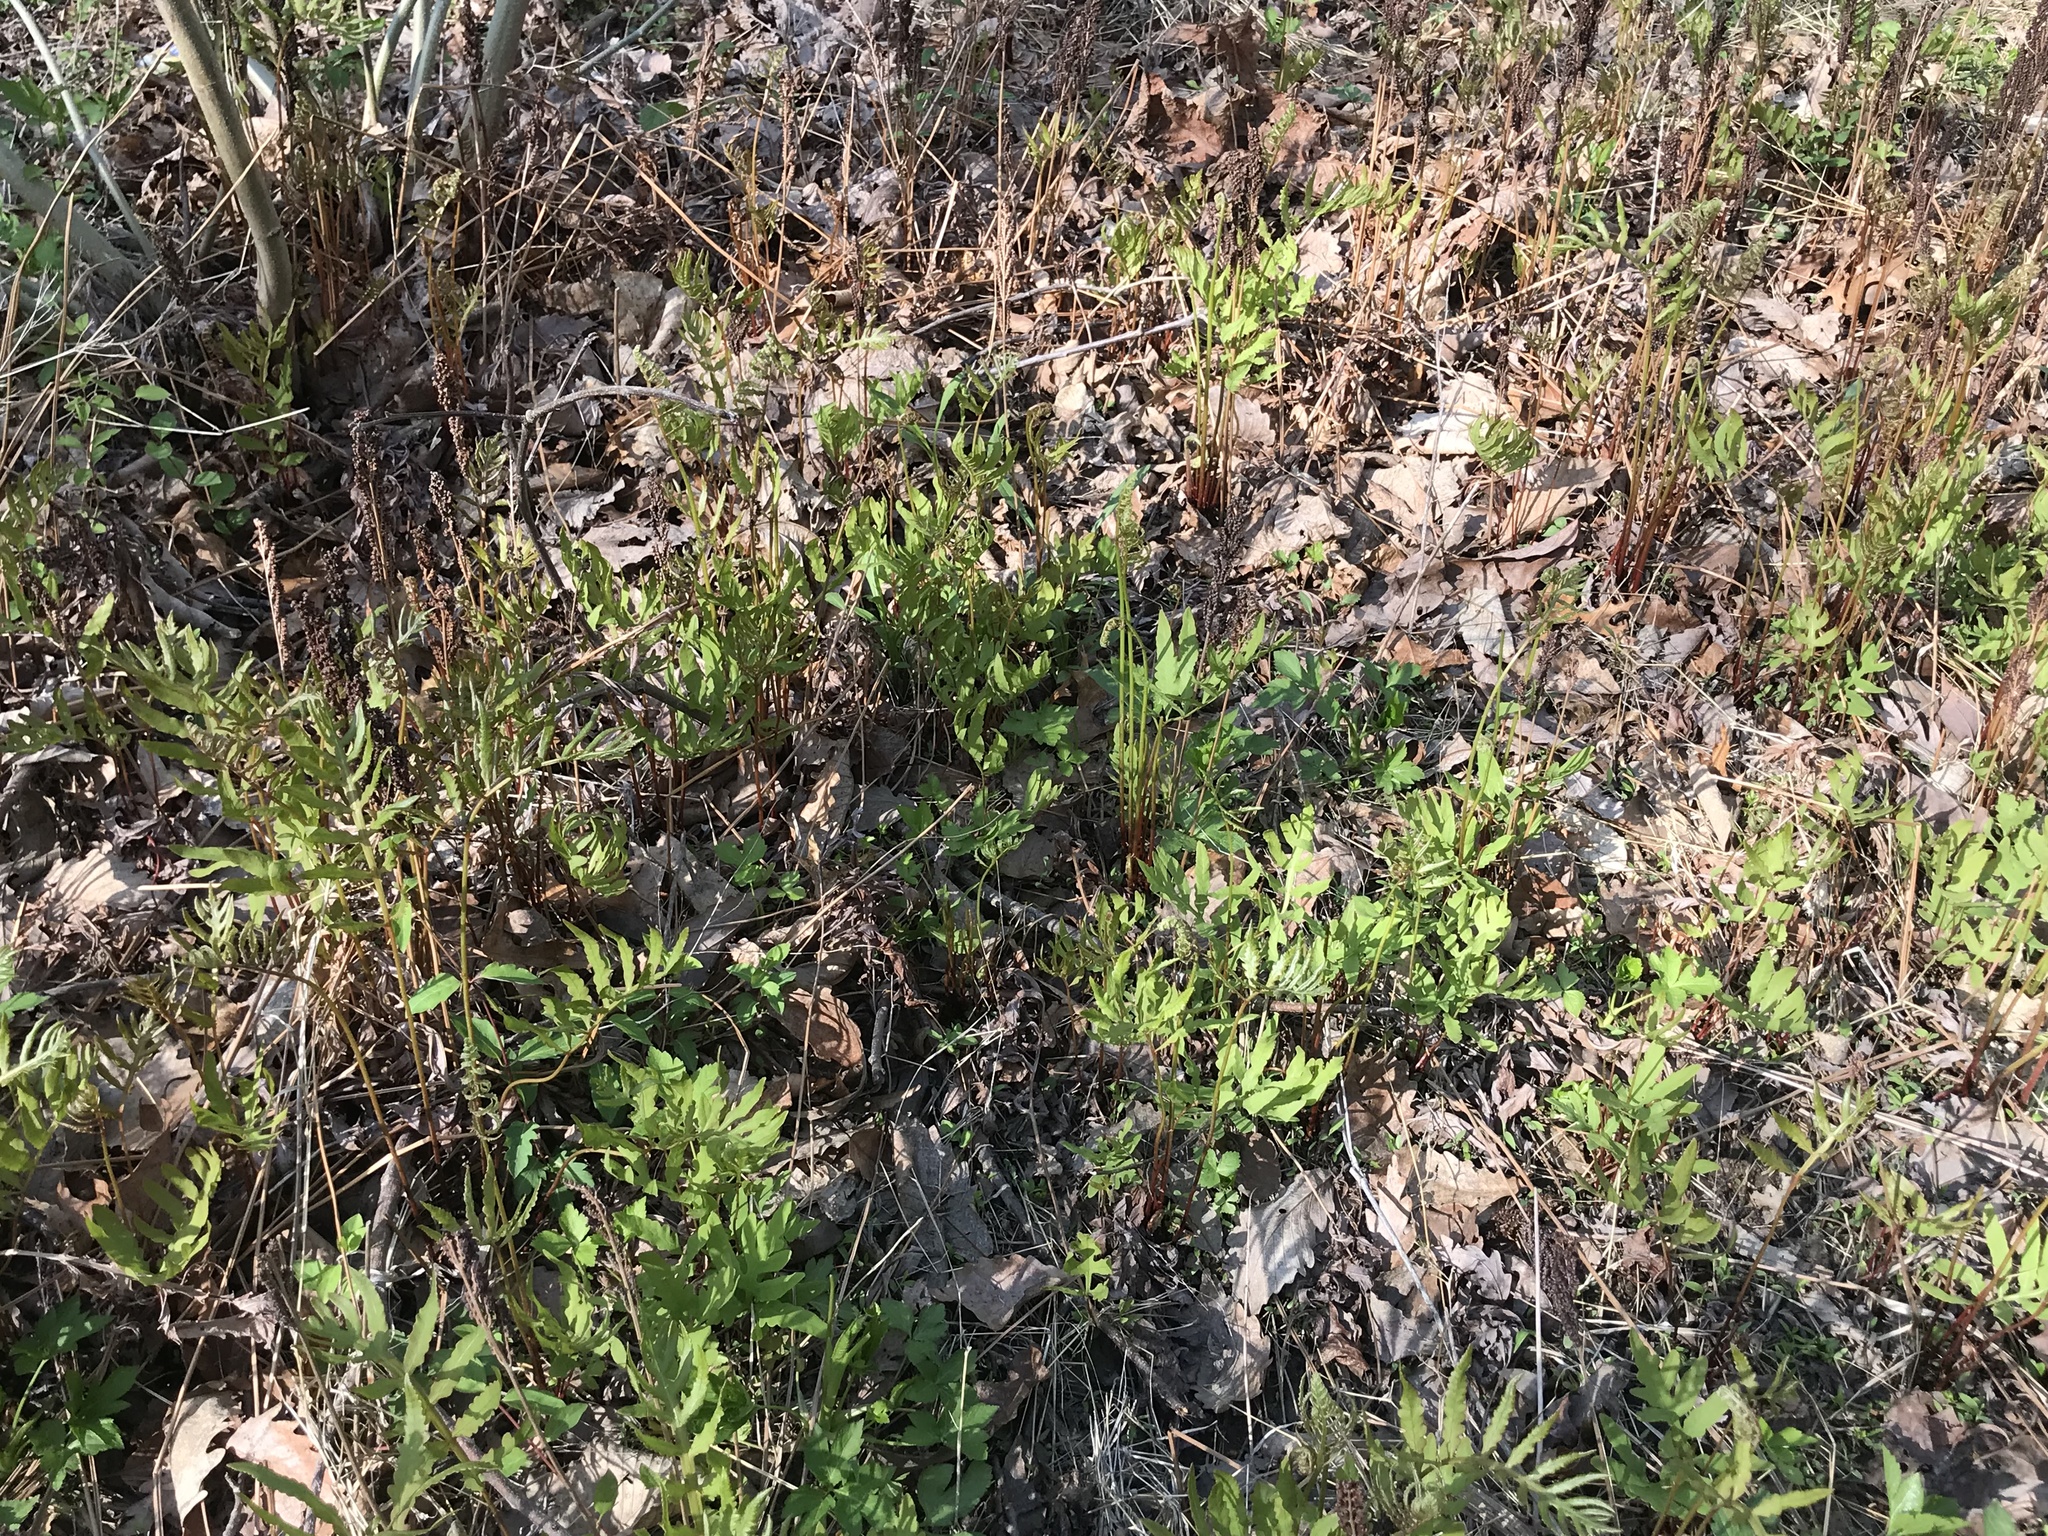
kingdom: Plantae
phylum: Tracheophyta
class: Polypodiopsida
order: Polypodiales
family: Onocleaceae
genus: Onoclea
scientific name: Onoclea sensibilis
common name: Sensitive fern
